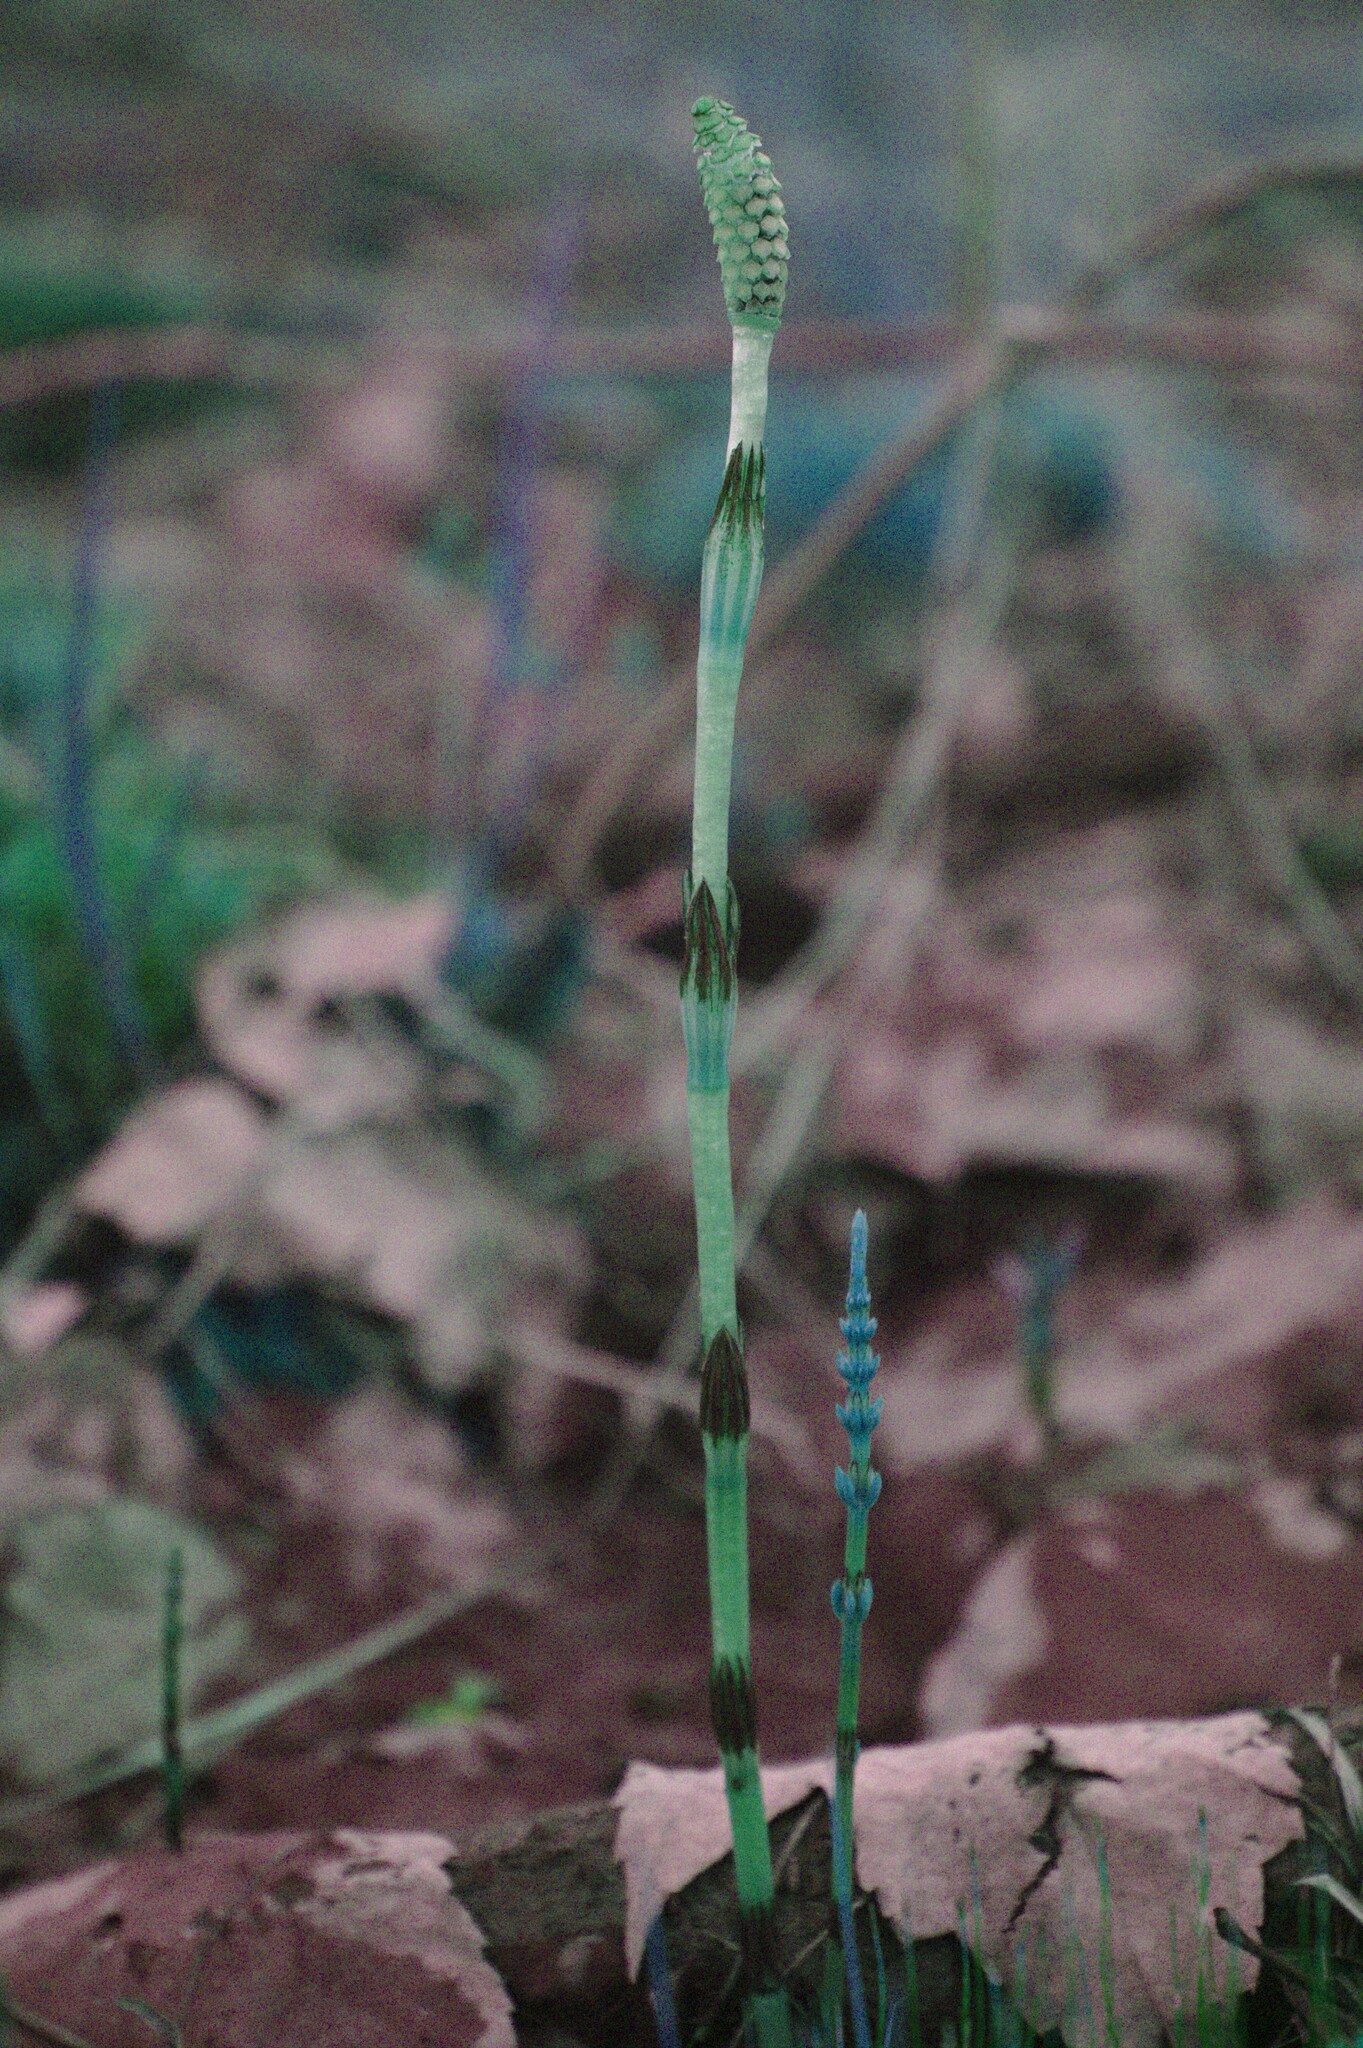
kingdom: Plantae
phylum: Tracheophyta
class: Polypodiopsida
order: Equisetales
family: Equisetaceae
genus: Equisetum
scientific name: Equisetum arvense
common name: Field horsetail
